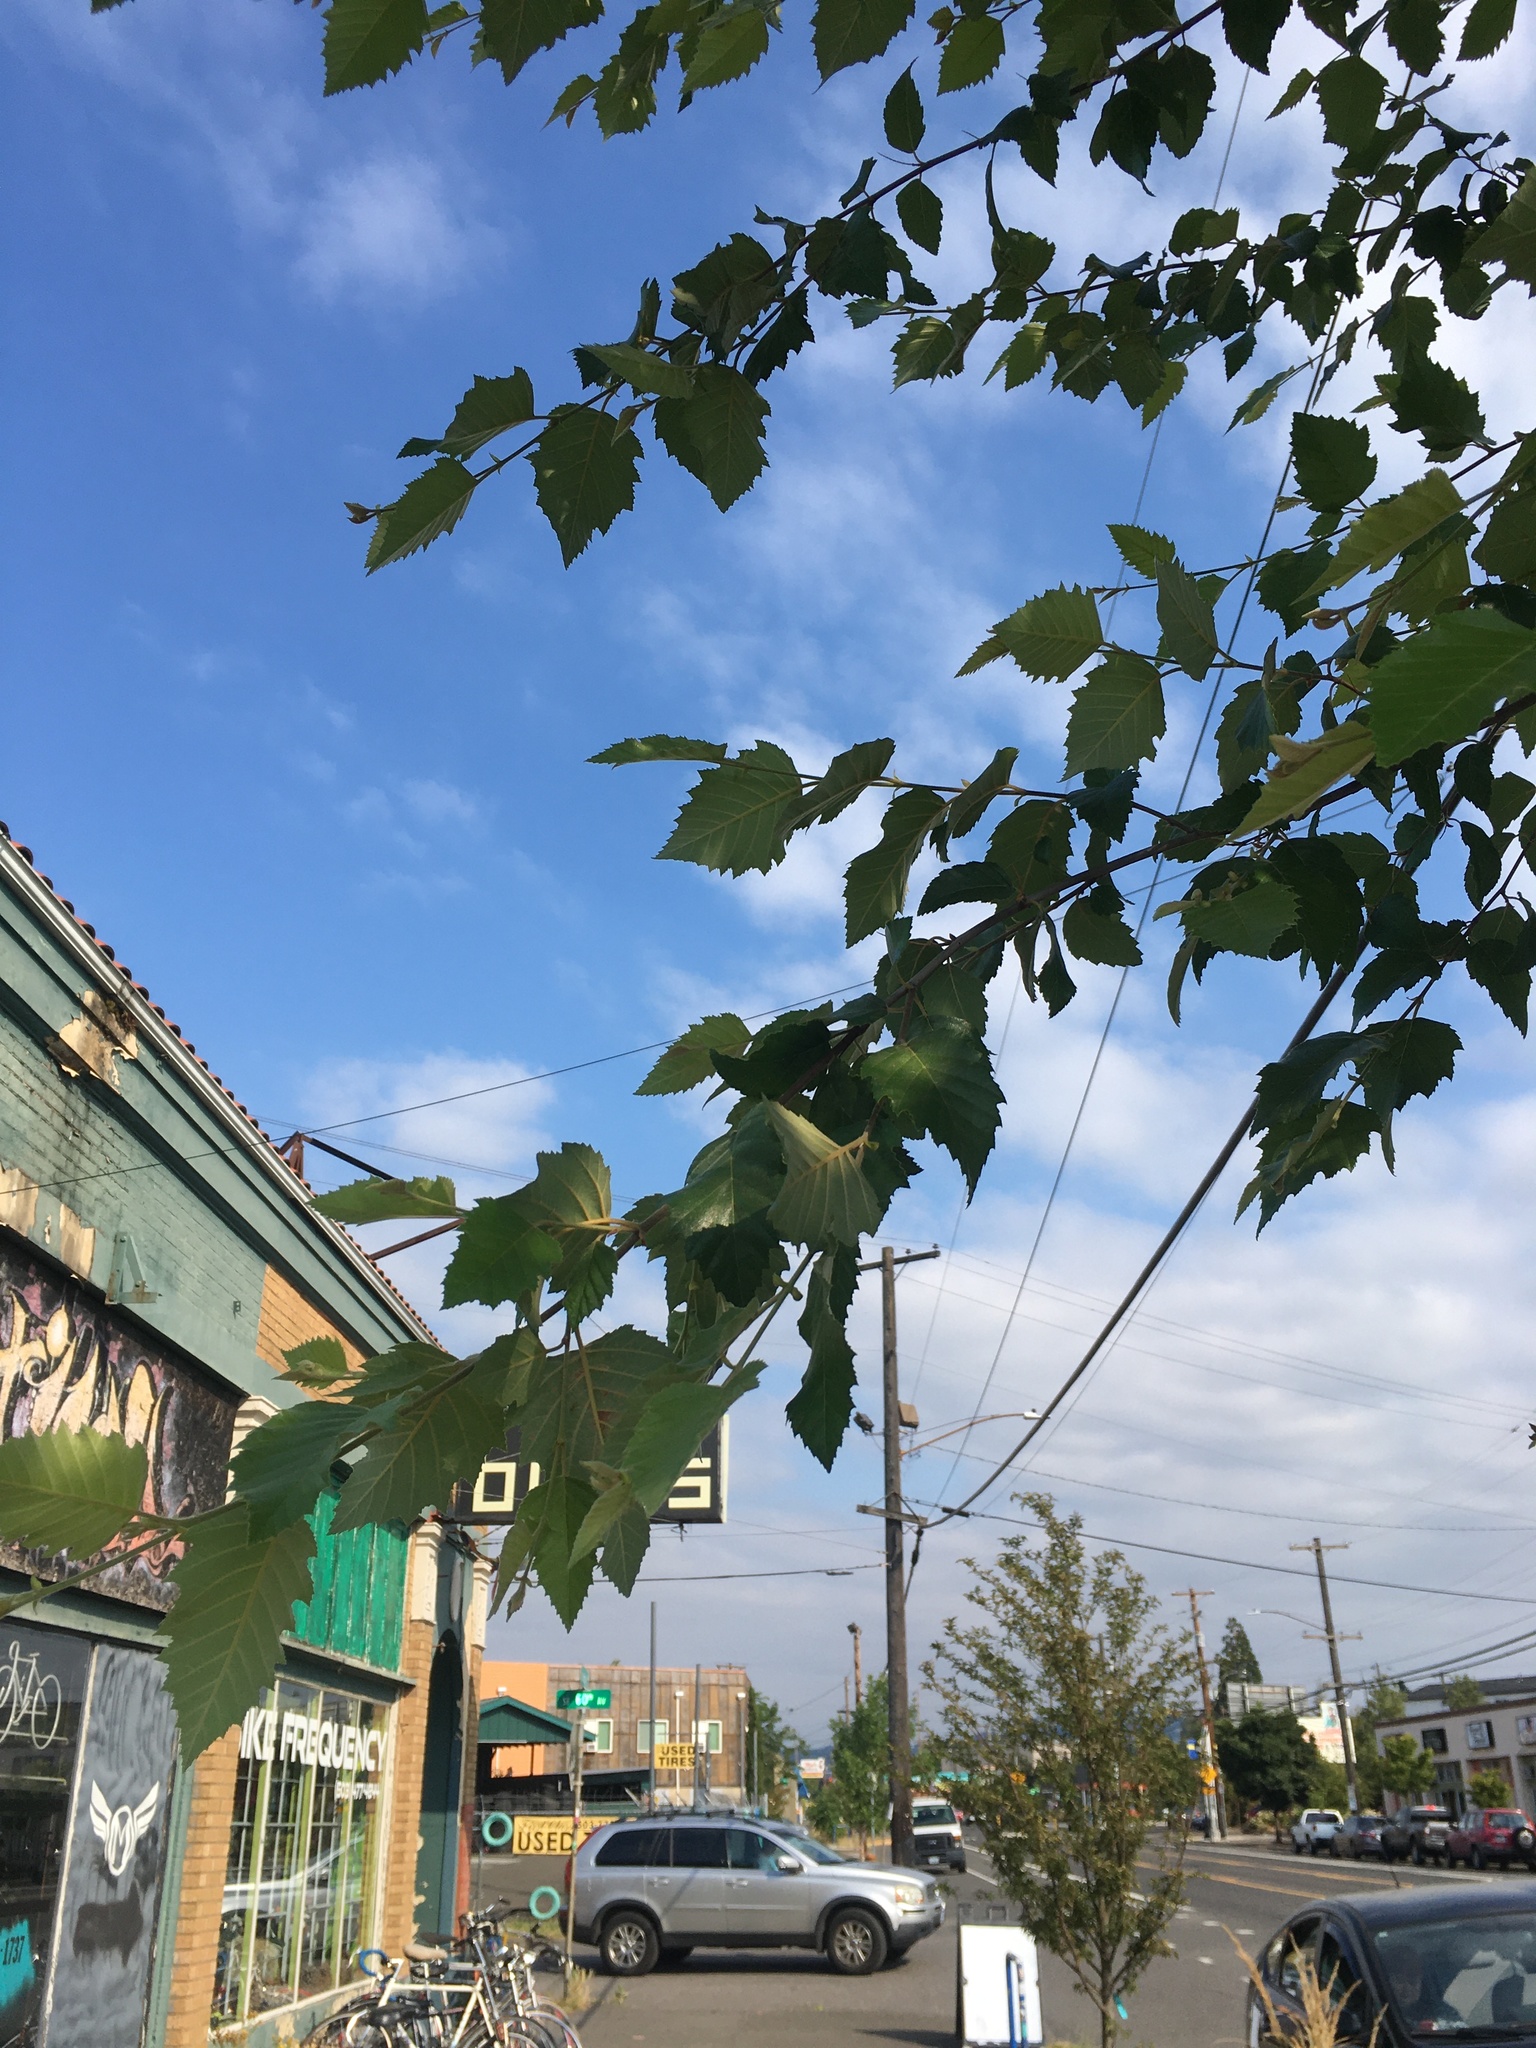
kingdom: Plantae
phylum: Tracheophyta
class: Magnoliopsida
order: Fagales
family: Betulaceae
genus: Betula
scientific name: Betula nigra
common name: Black birch
